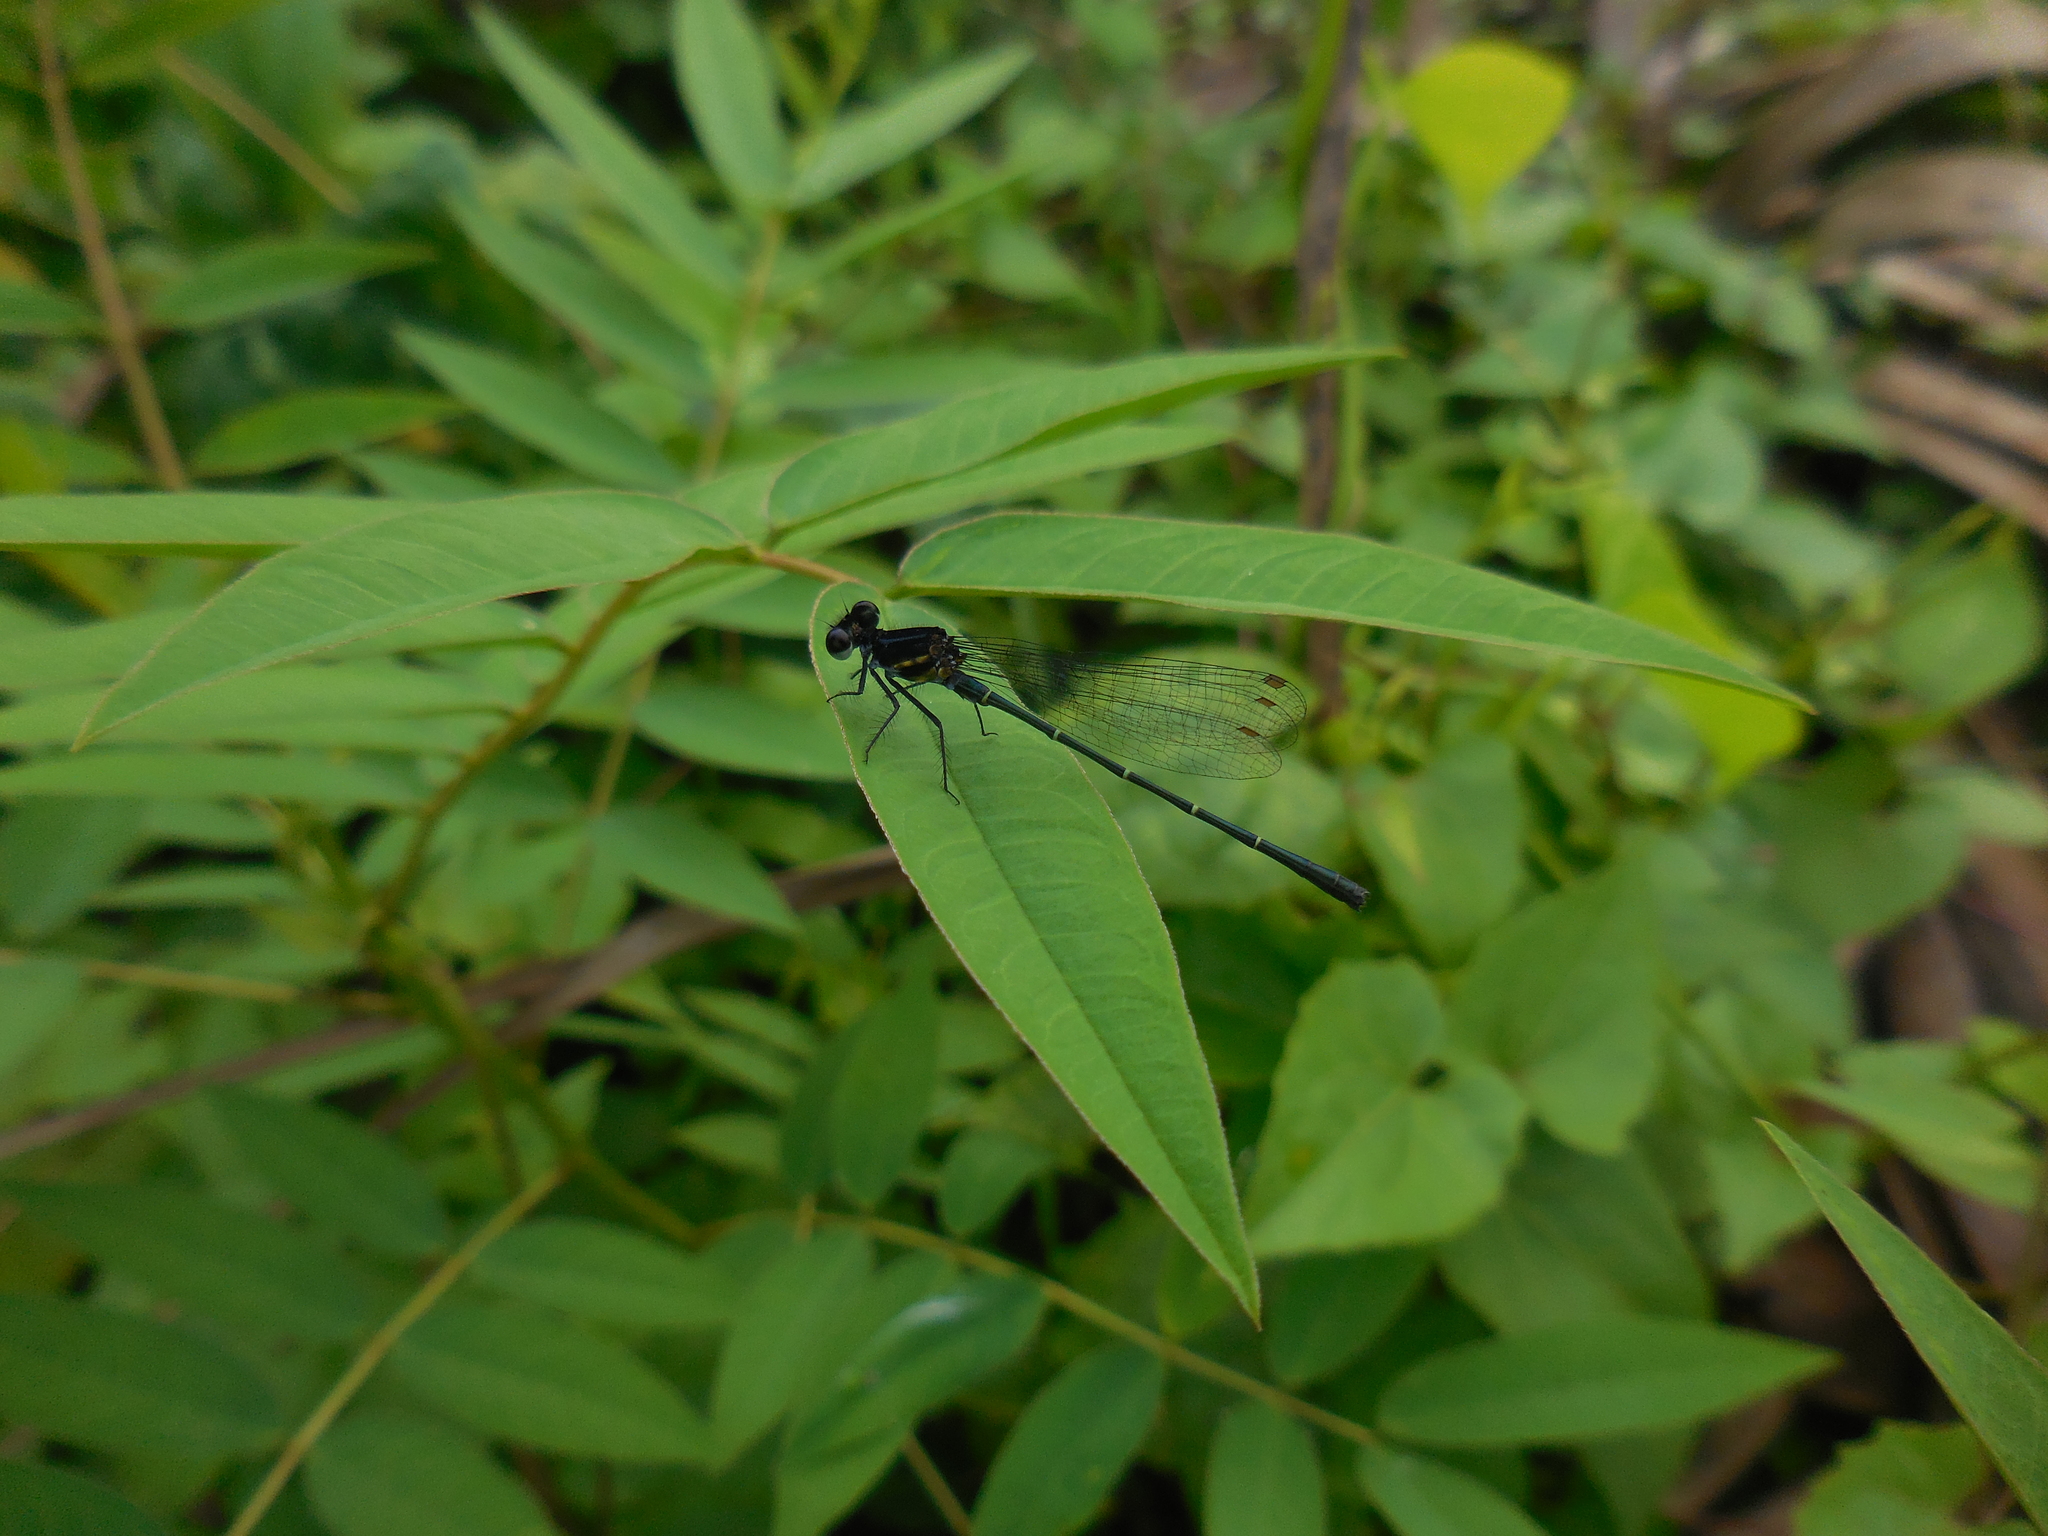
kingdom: Animalia
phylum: Arthropoda
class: Insecta
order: Odonata
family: Platycnemididae
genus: Onychargia
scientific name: Onychargia atrocyana
